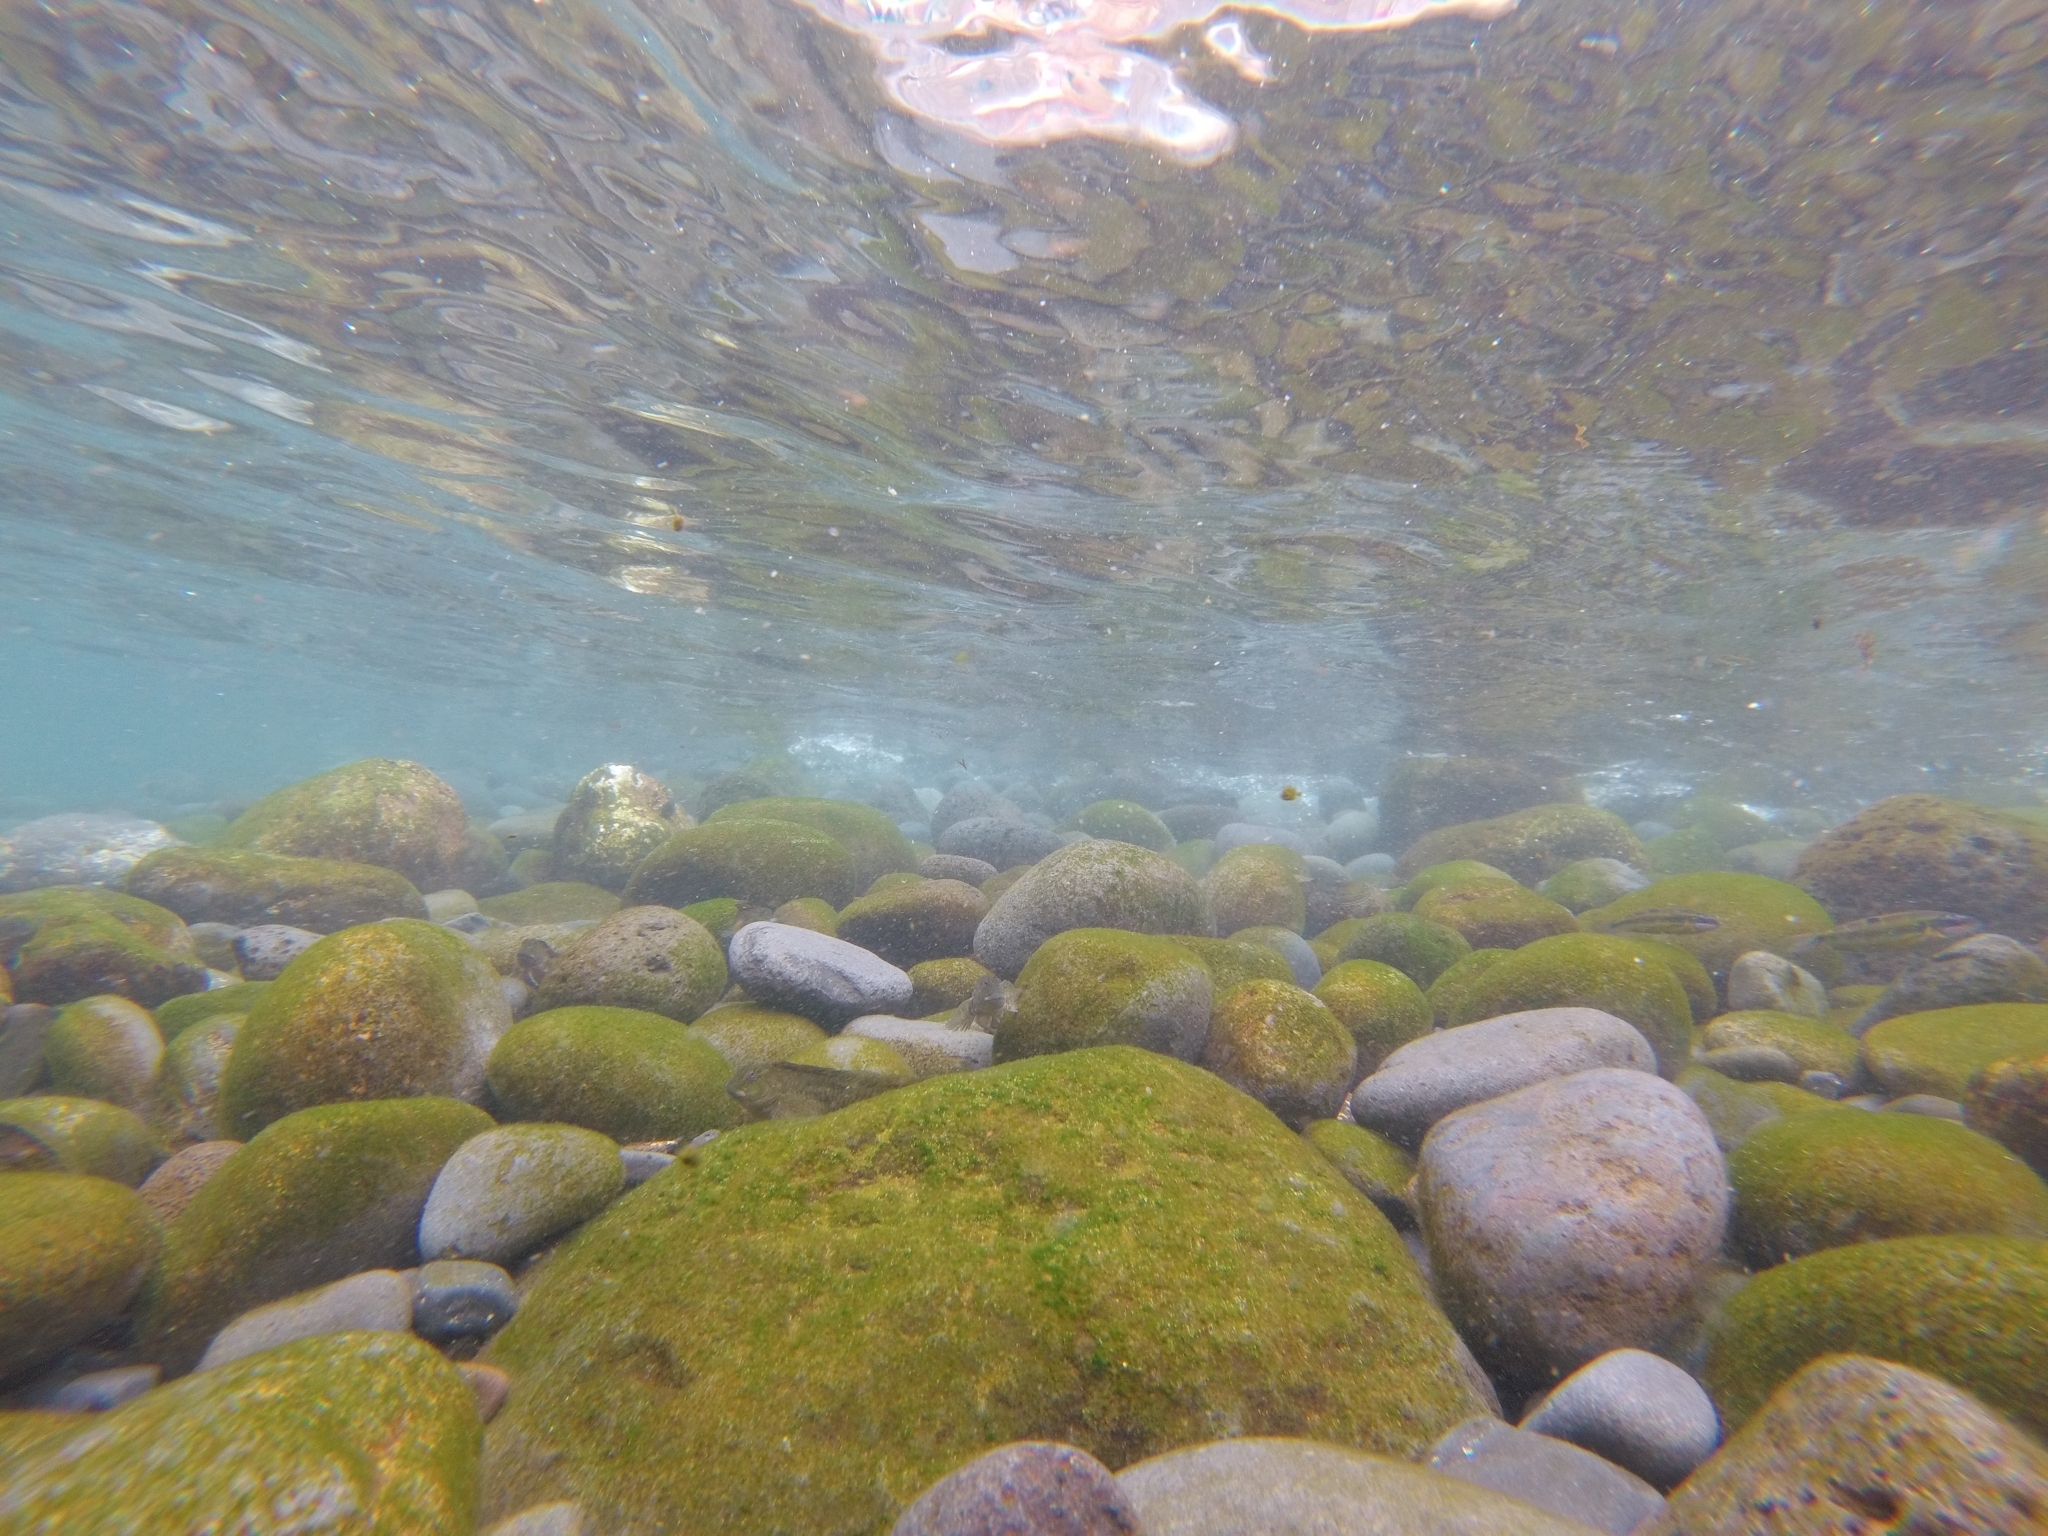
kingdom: Animalia
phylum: Chordata
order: Perciformes
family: Labridae
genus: Thalassoma
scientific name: Thalassoma pavo
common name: Ornate wrasse
